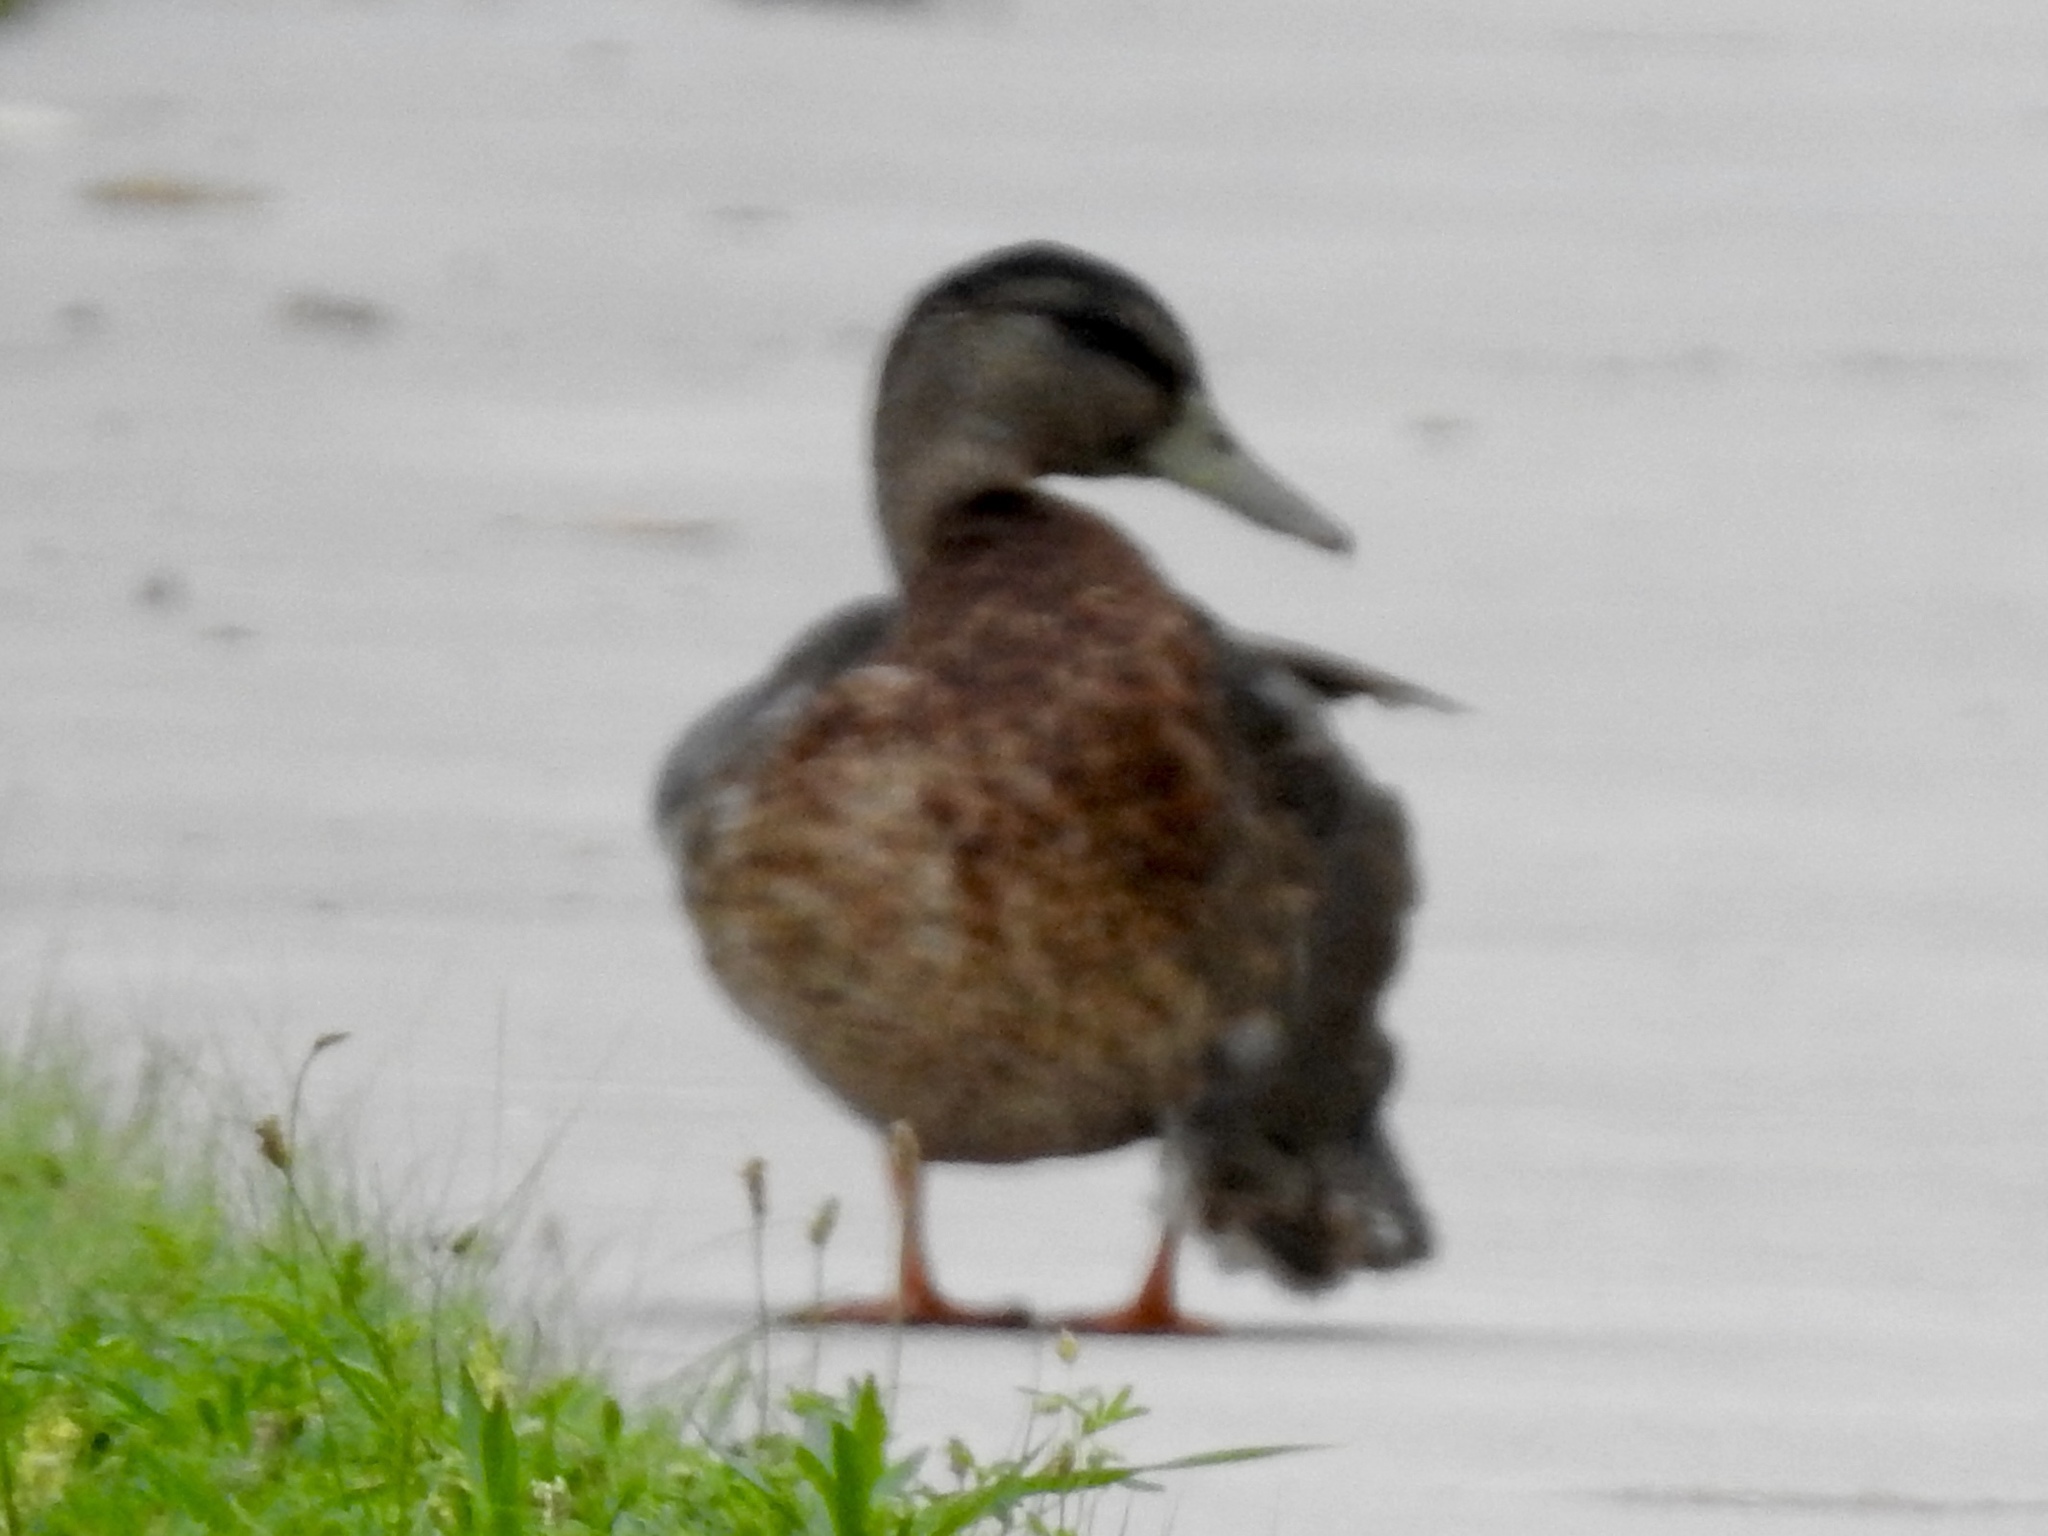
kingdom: Animalia
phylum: Chordata
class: Aves
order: Anseriformes
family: Anatidae
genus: Anas
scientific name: Anas platyrhynchos
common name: Mallard
